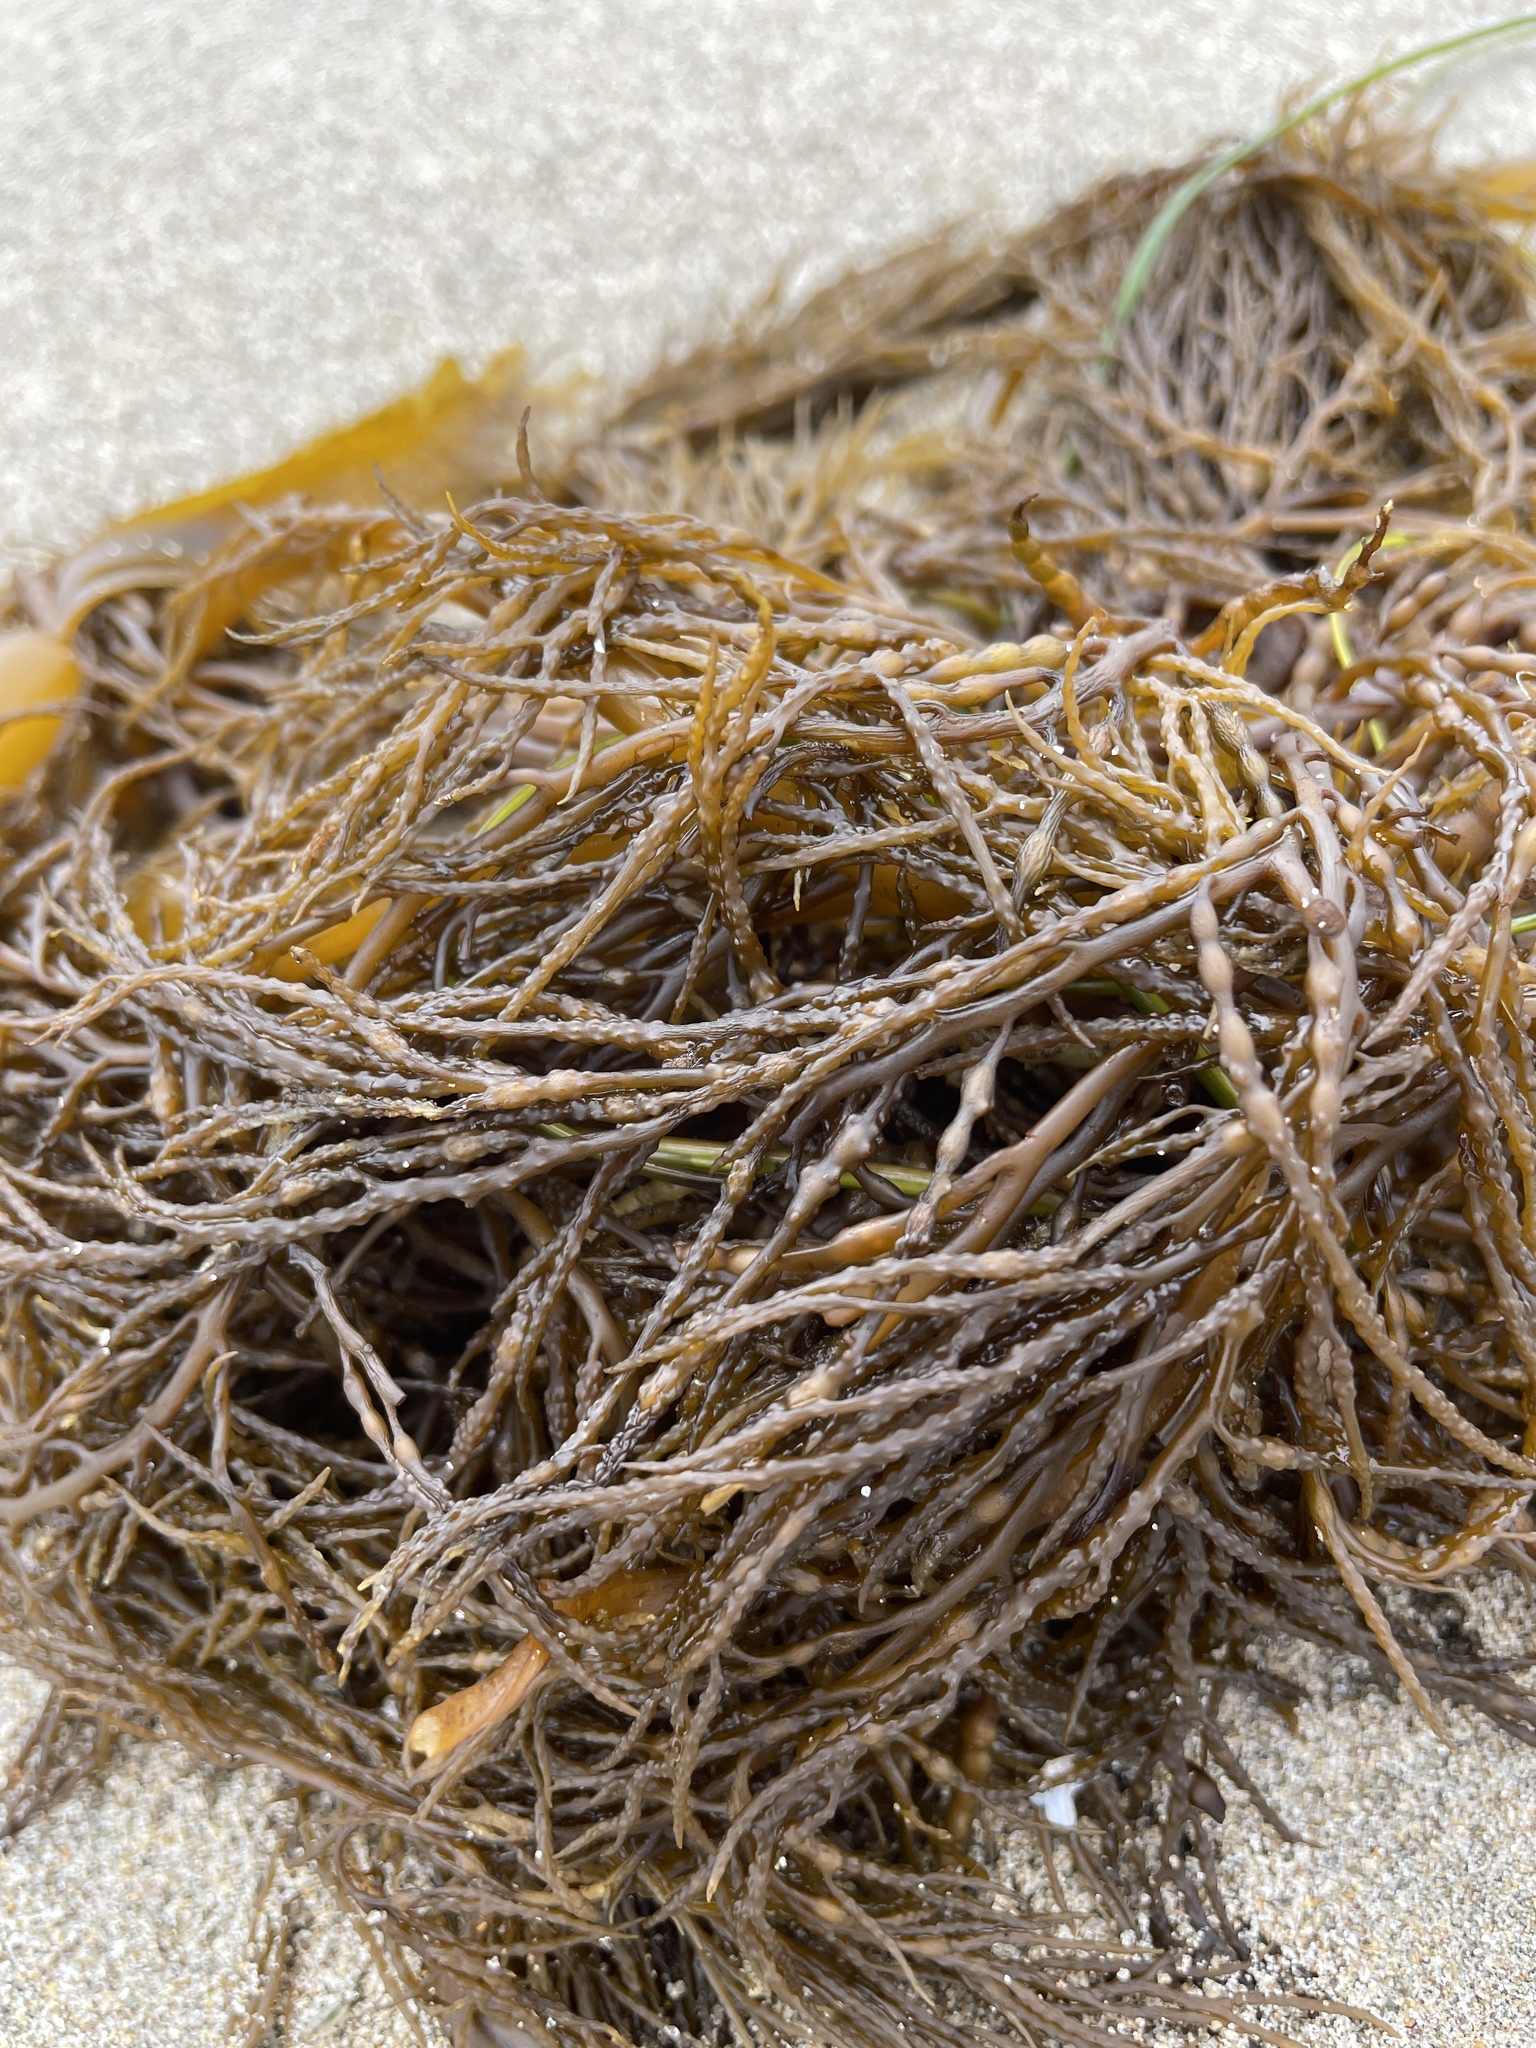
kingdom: Chromista
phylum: Ochrophyta
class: Phaeophyceae
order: Fucales
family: Sargassaceae
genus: Stephanocystis
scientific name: Stephanocystis
